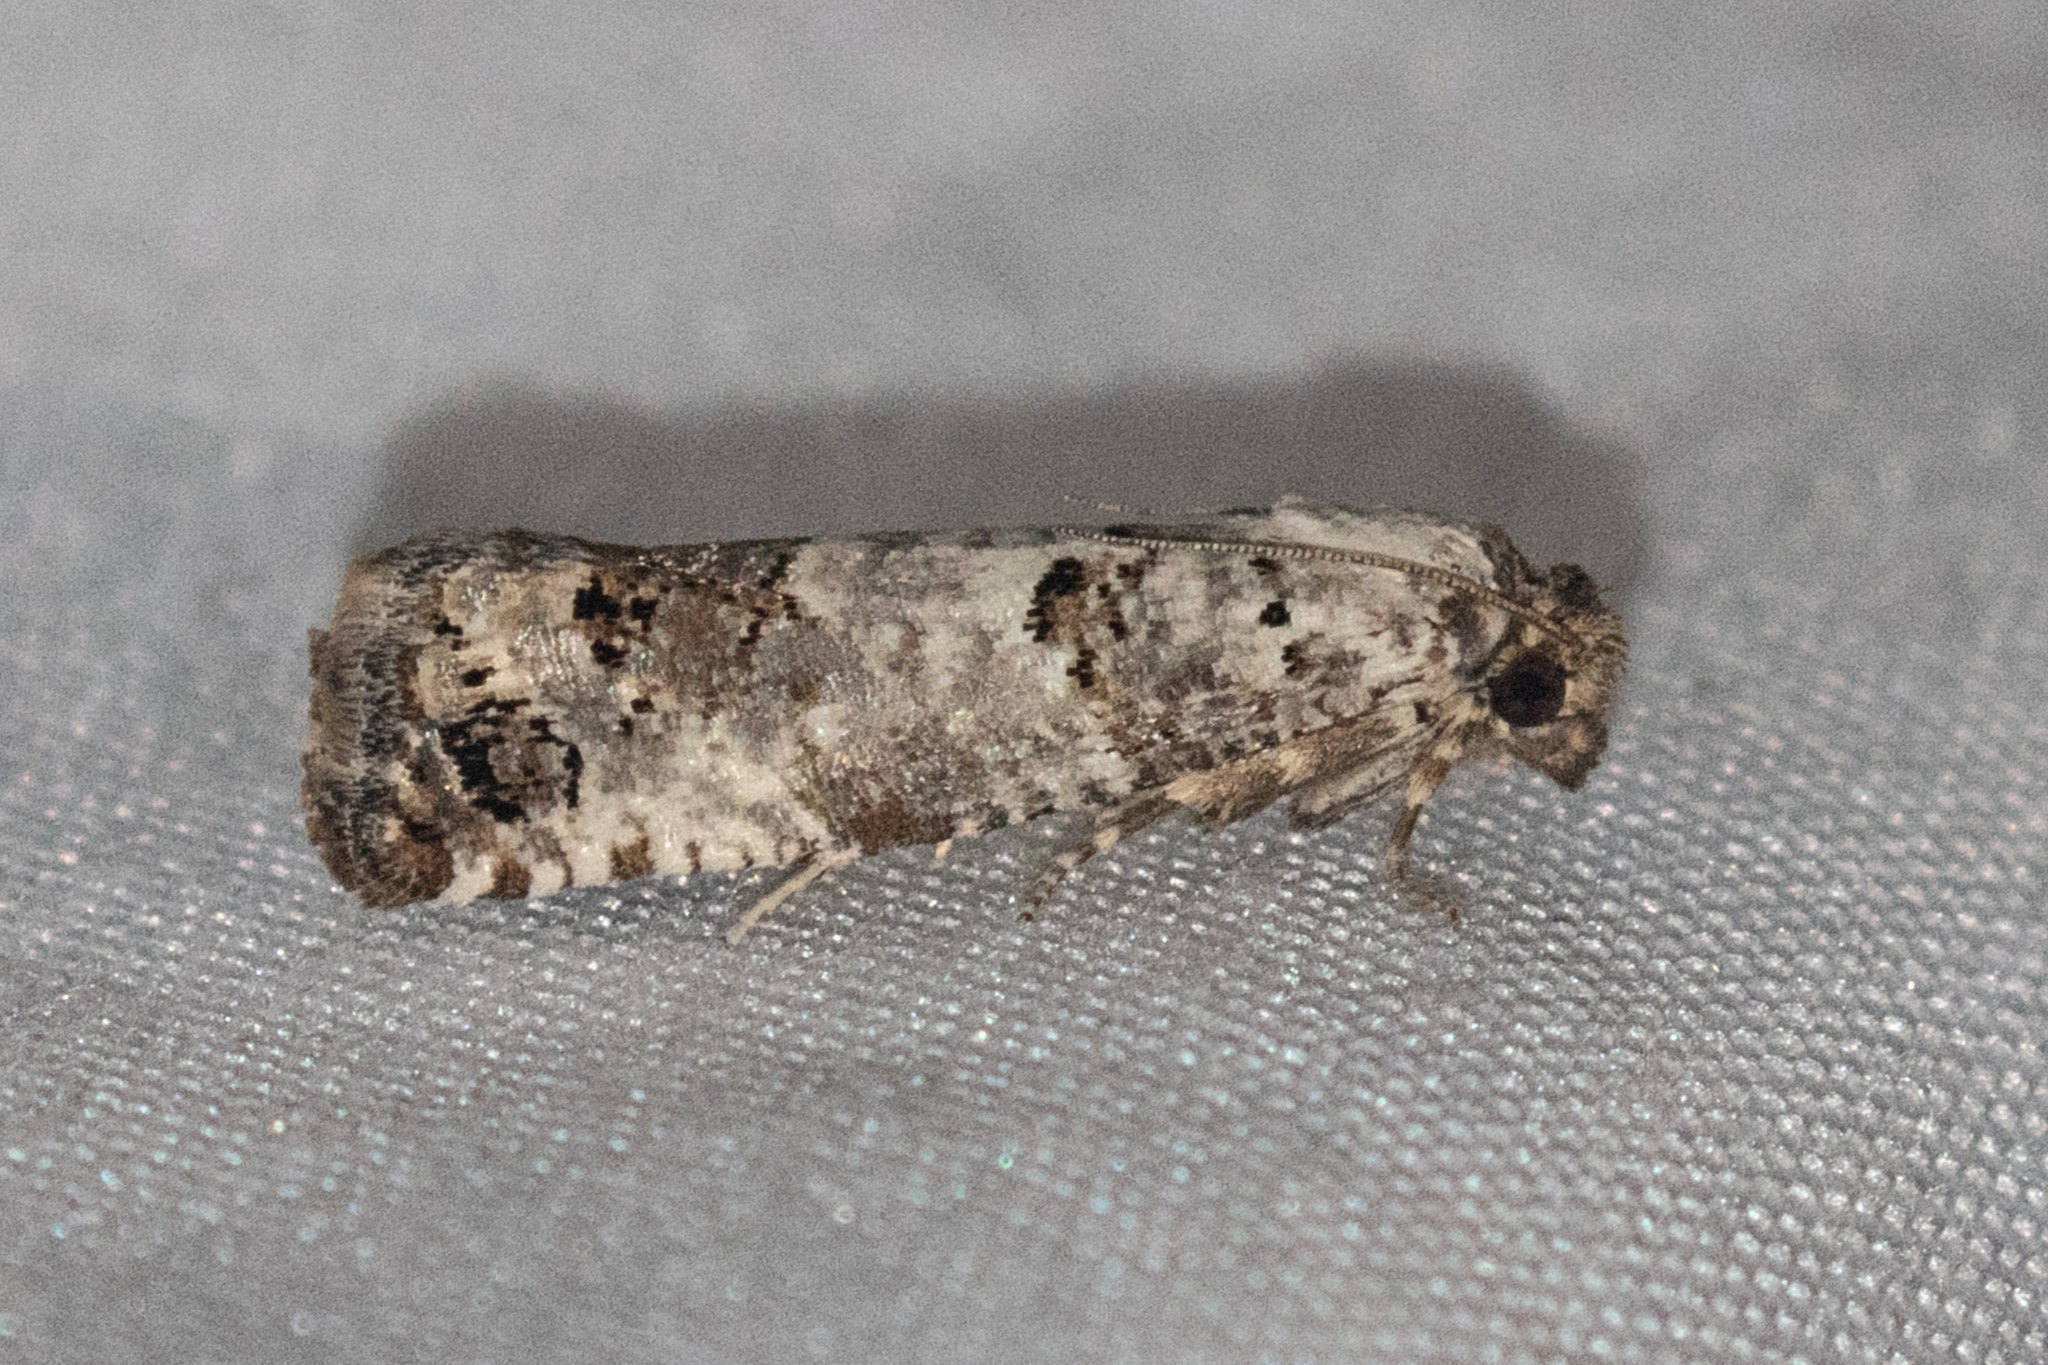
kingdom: Animalia
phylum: Arthropoda
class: Insecta
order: Lepidoptera
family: Tortricidae
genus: Pelochrista
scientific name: Pelochrista eburata
